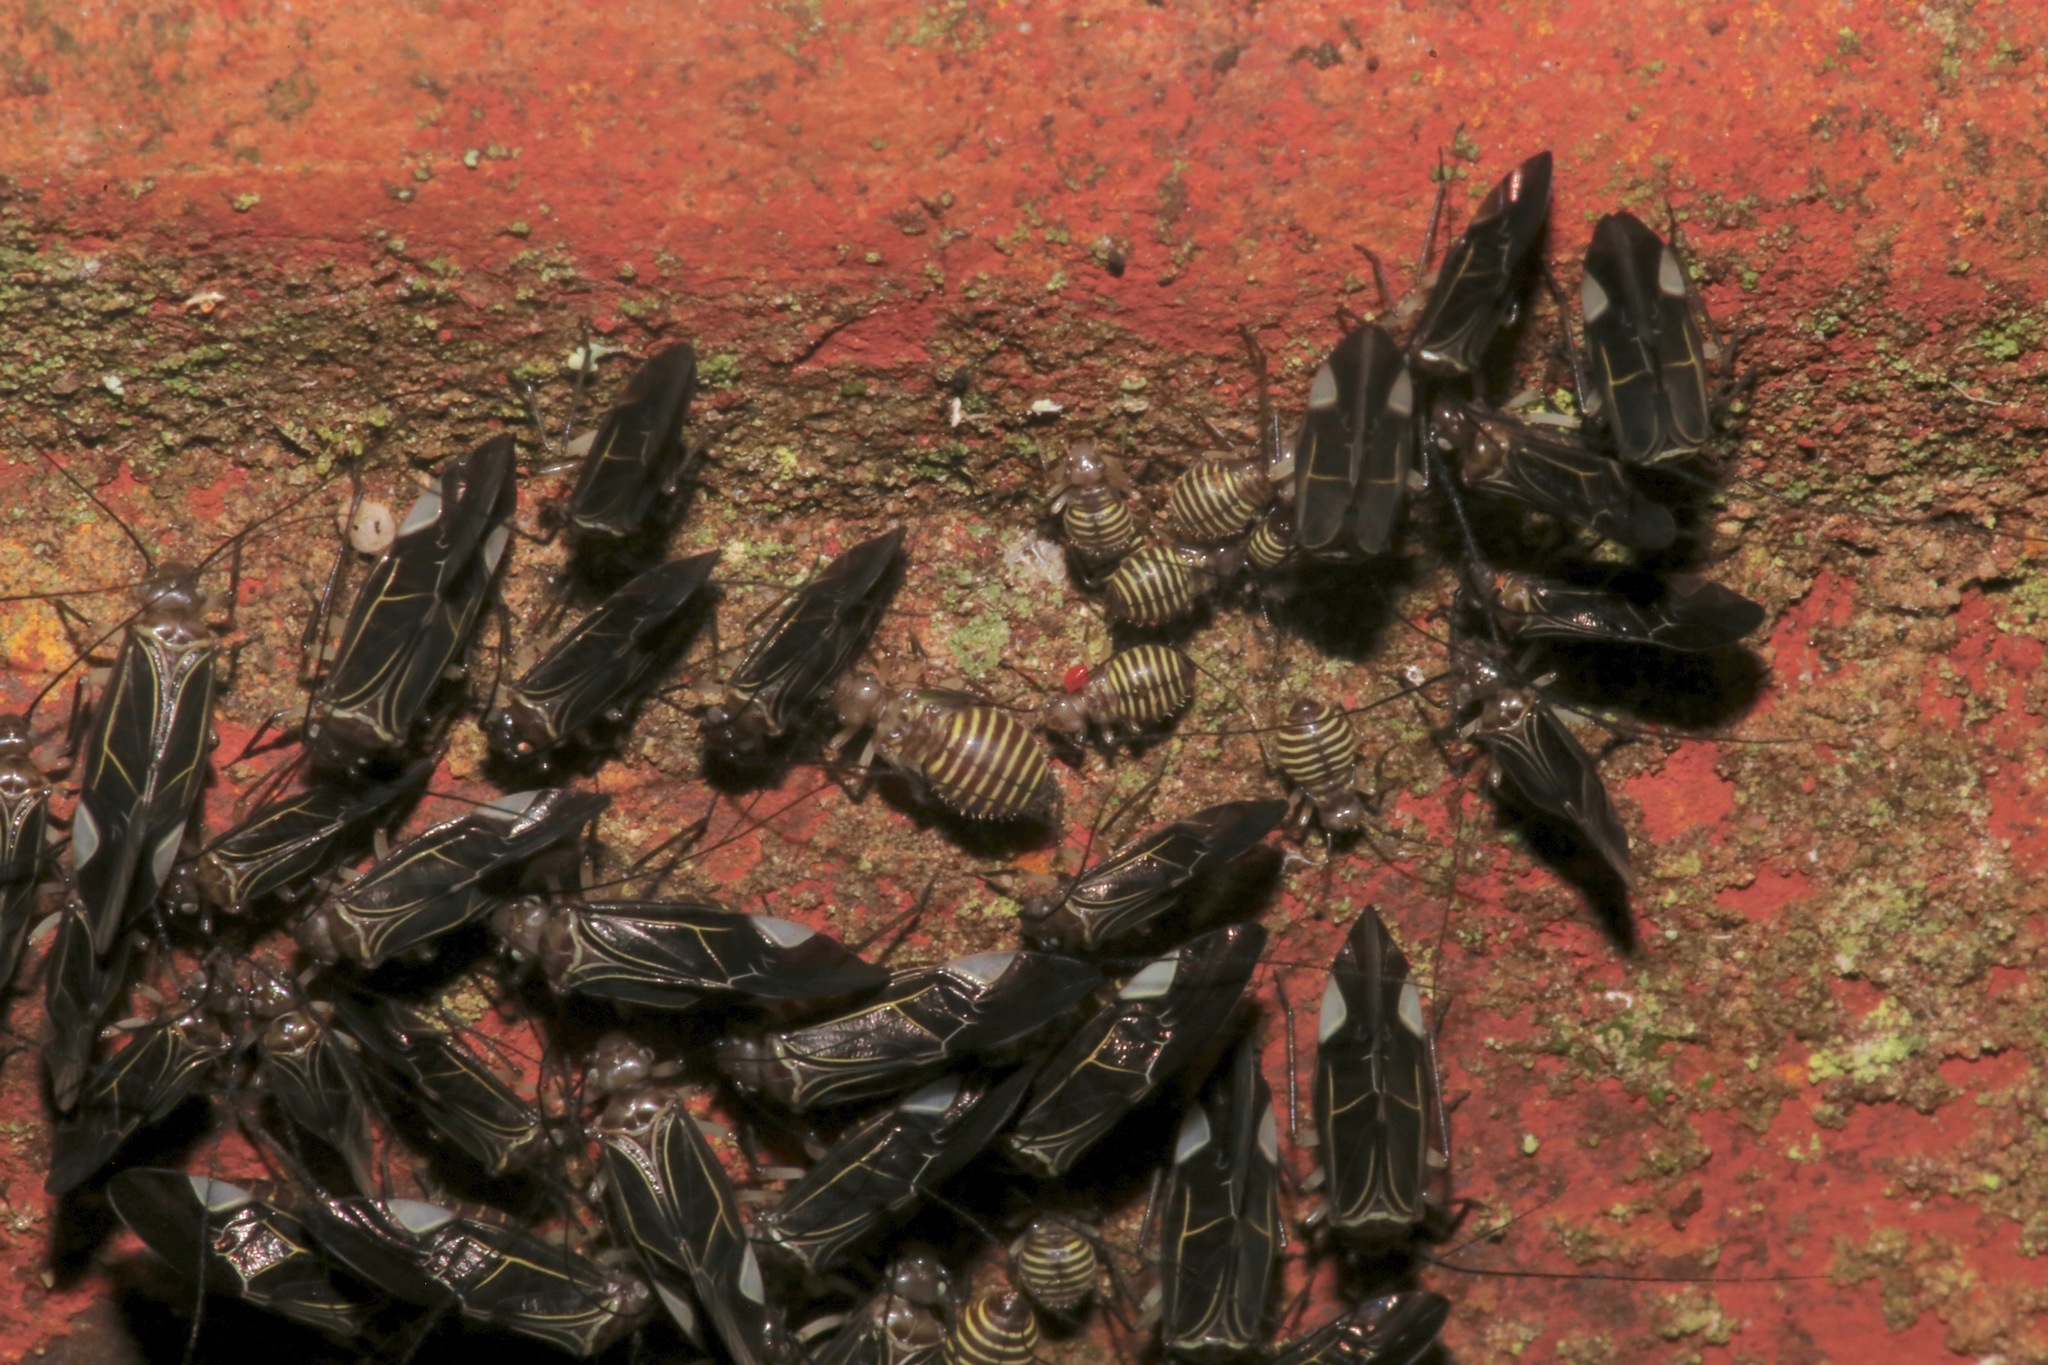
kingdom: Animalia
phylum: Arthropoda
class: Insecta
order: Psocodea
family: Psocidae
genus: Cerastipsocus
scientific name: Cerastipsocus venosus
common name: Tree cattle
